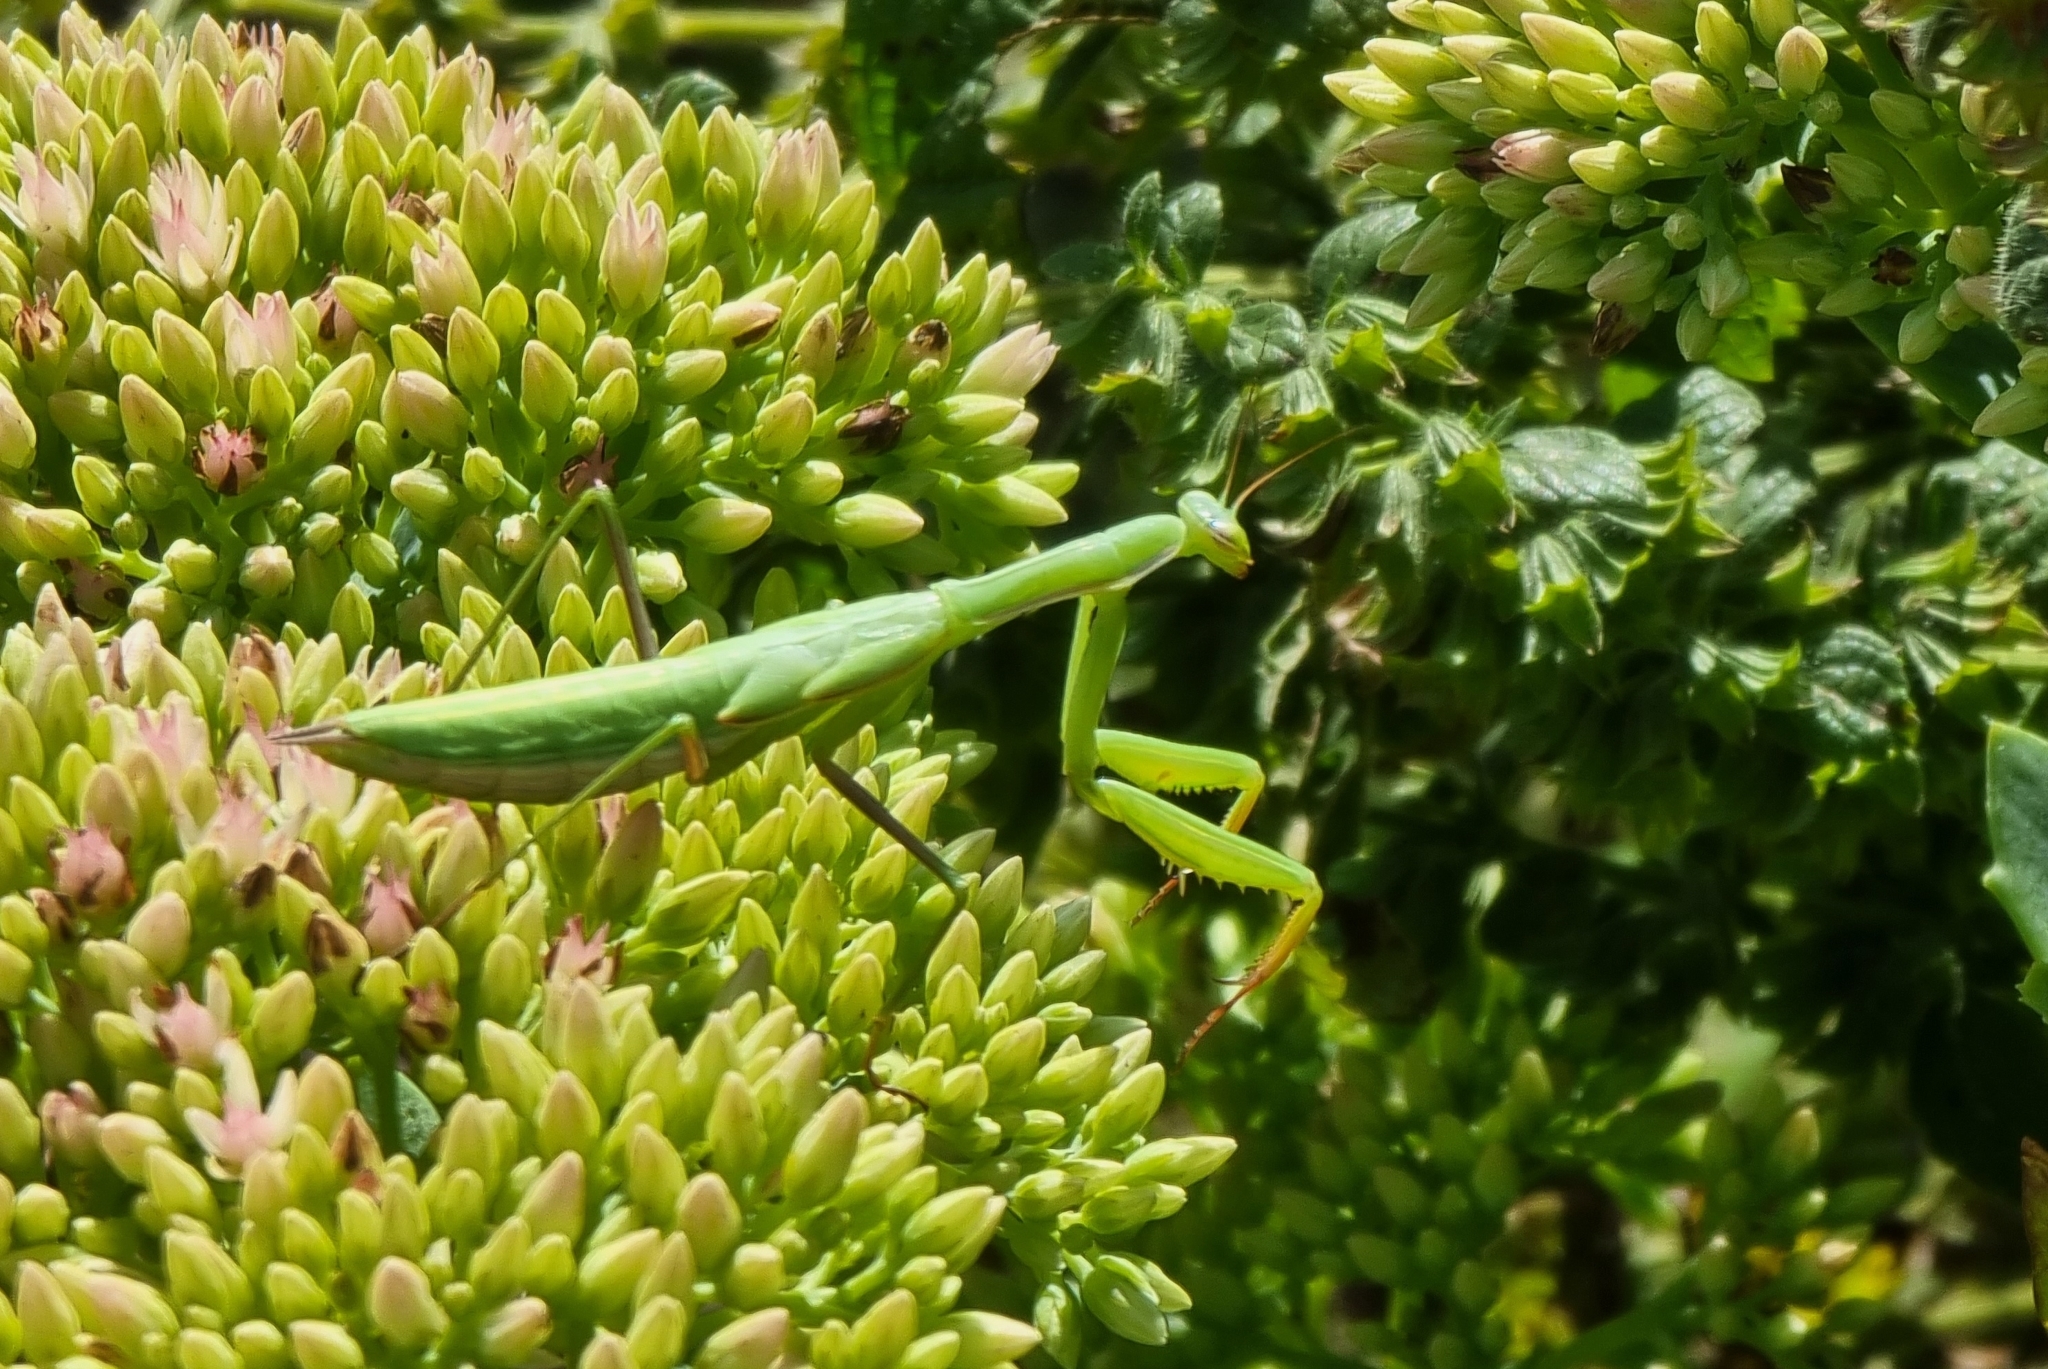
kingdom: Animalia
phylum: Arthropoda
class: Insecta
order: Mantodea
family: Mantidae
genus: Mantis
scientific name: Mantis religiosa
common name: Praying mantis
